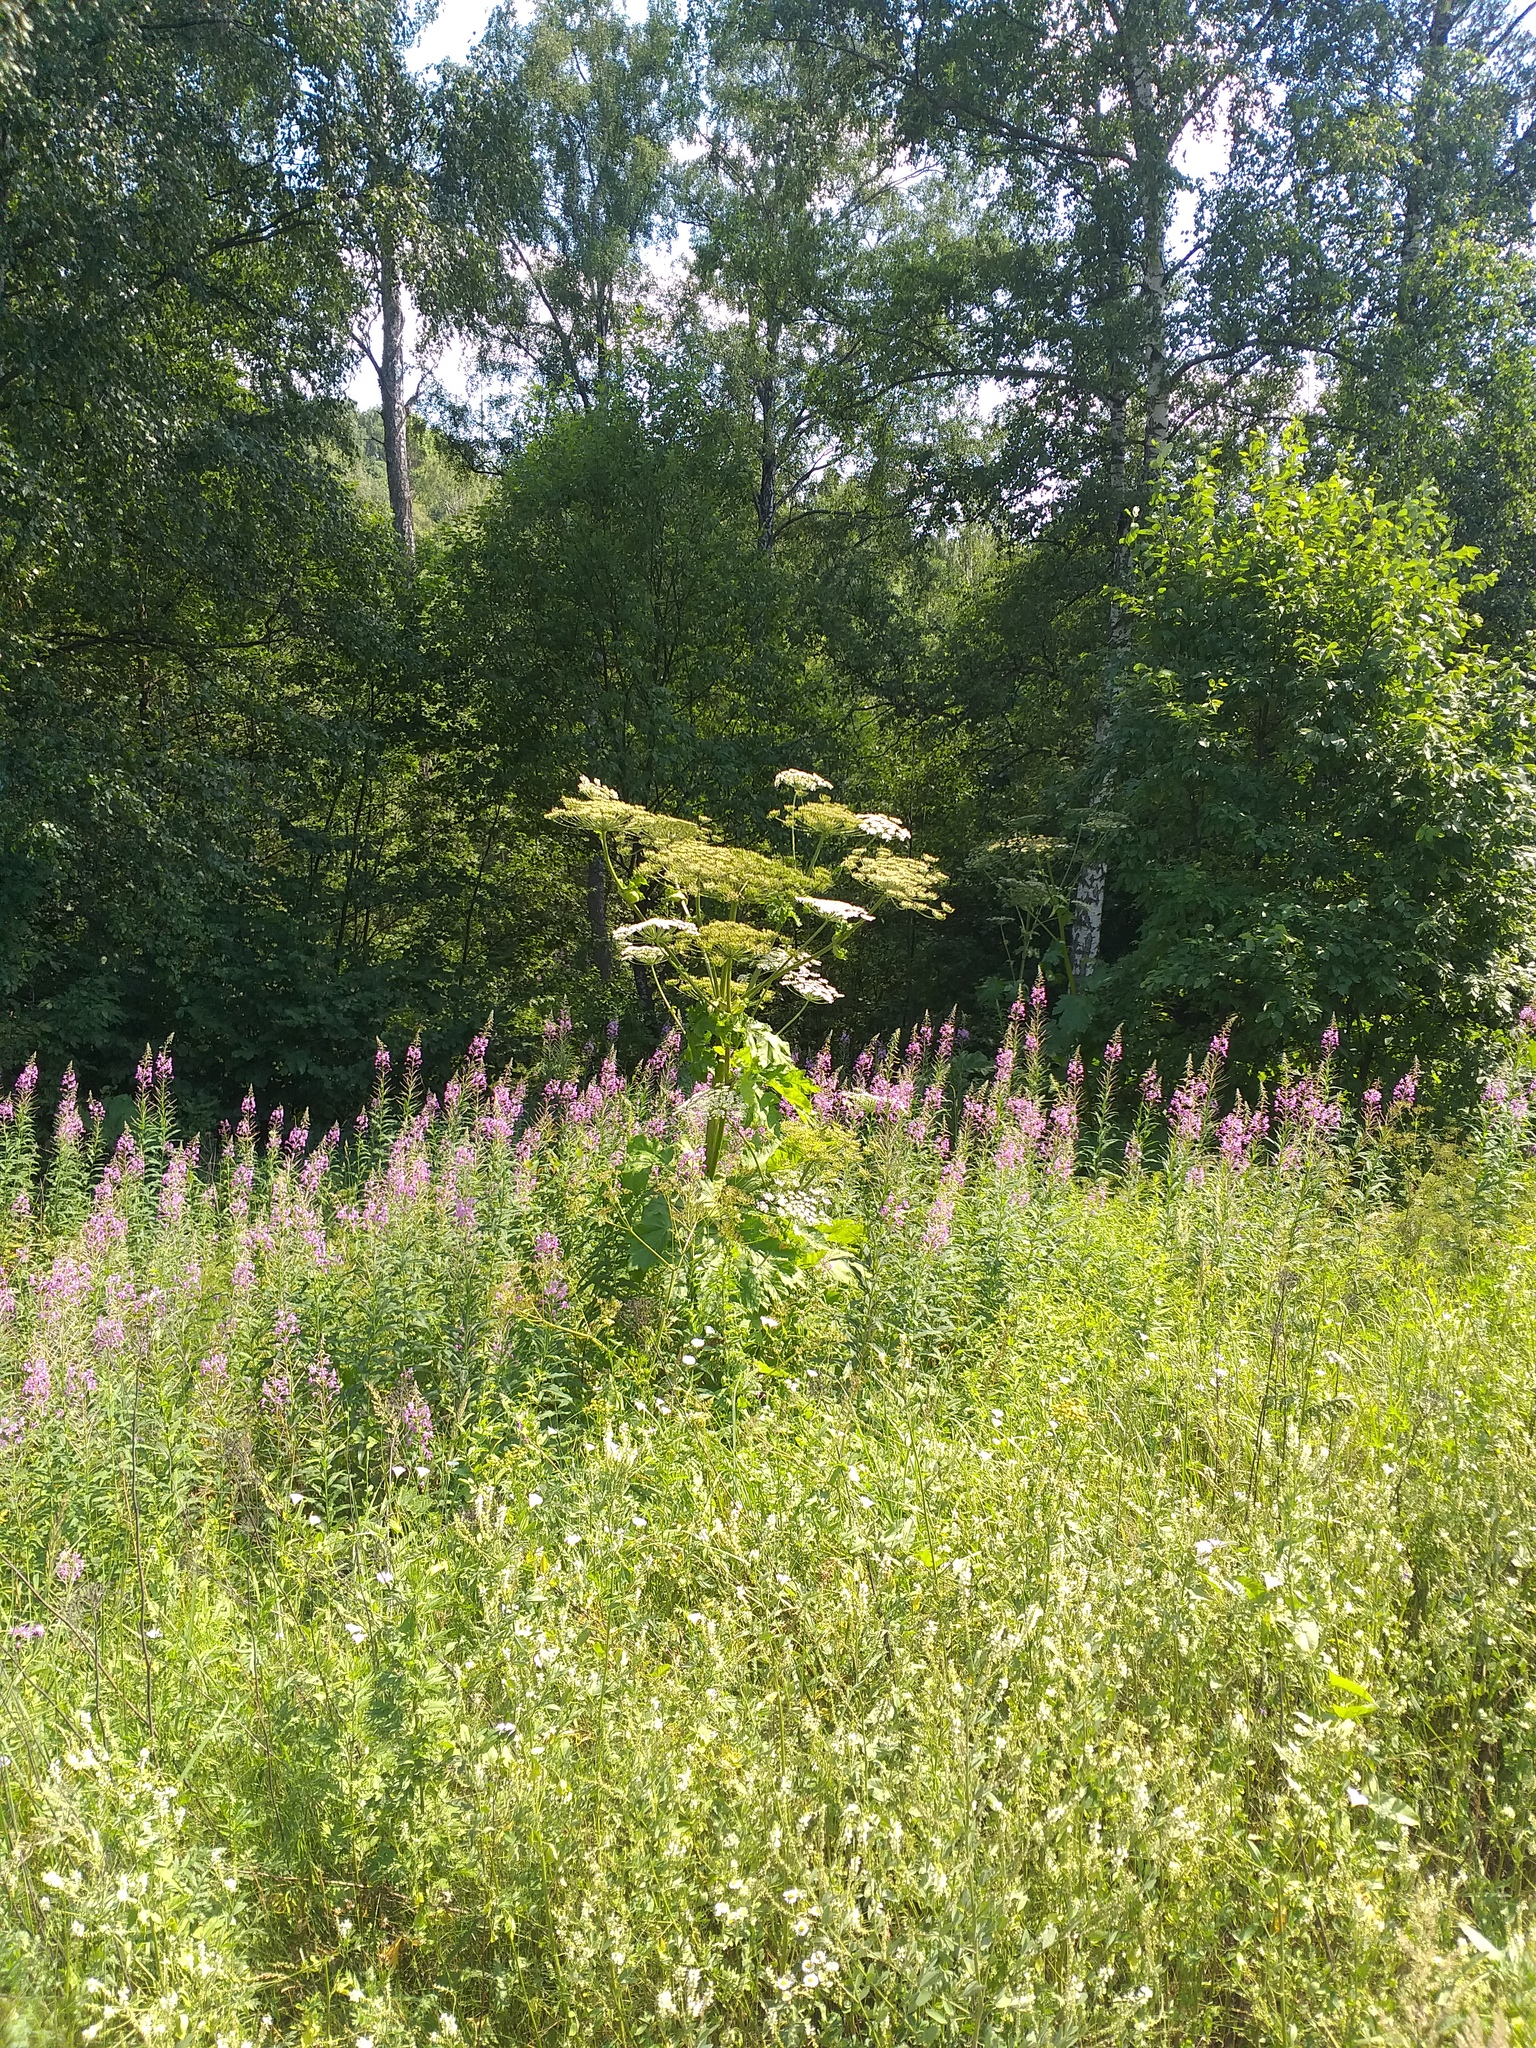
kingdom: Plantae
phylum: Tracheophyta
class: Magnoliopsida
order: Apiales
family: Apiaceae
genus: Heracleum
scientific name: Heracleum sosnowskyi
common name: Sosnowsky's hogweed
